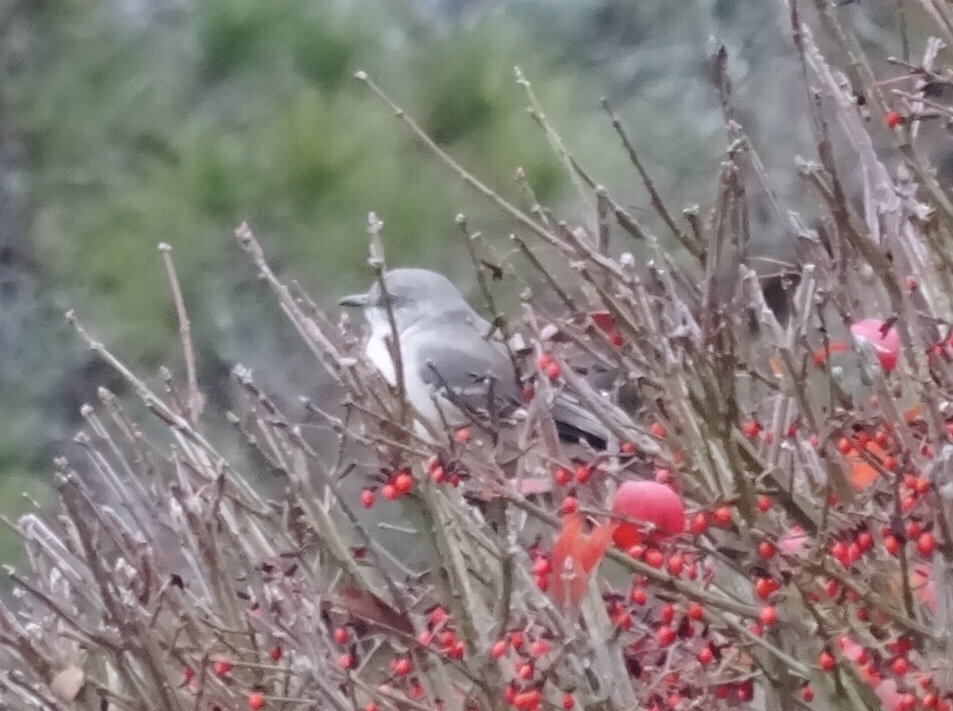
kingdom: Animalia
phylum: Chordata
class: Aves
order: Passeriformes
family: Mimidae
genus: Mimus
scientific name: Mimus polyglottos
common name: Northern mockingbird
